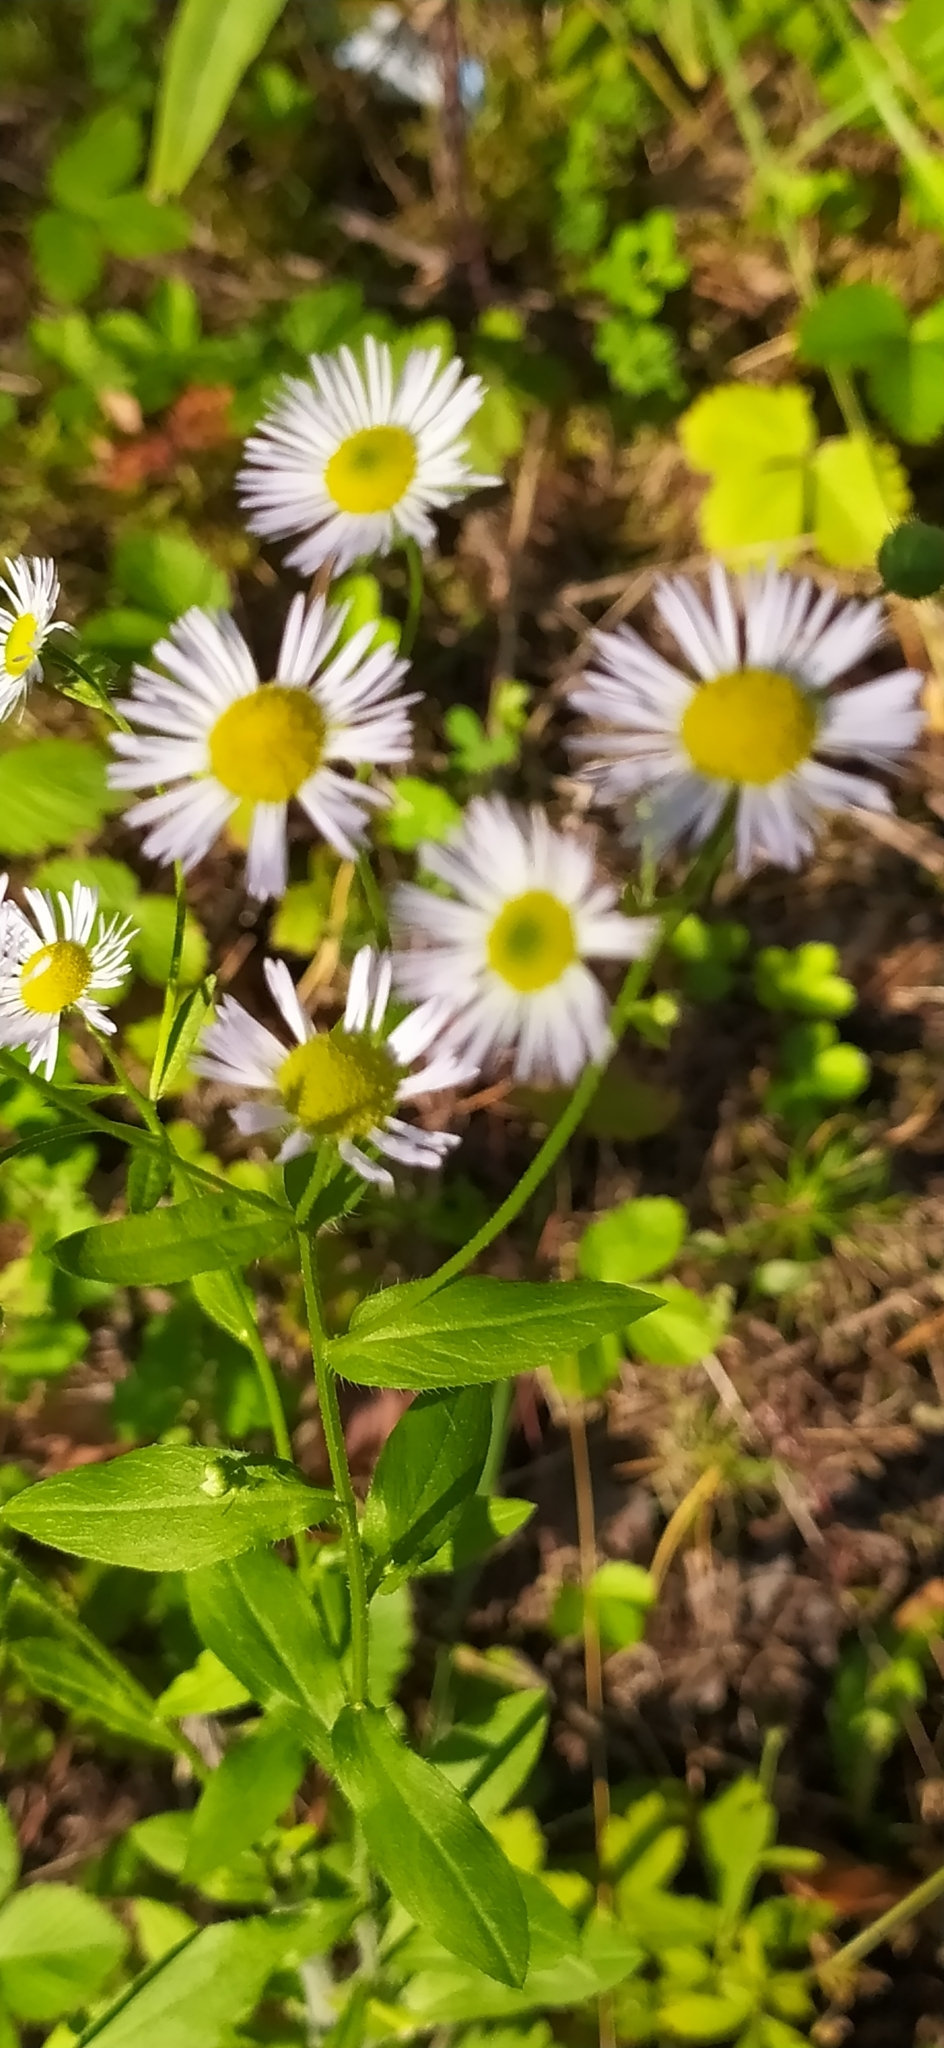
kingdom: Plantae
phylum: Tracheophyta
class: Magnoliopsida
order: Asterales
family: Asteraceae
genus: Erigeron
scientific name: Erigeron annuus
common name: Tall fleabane
